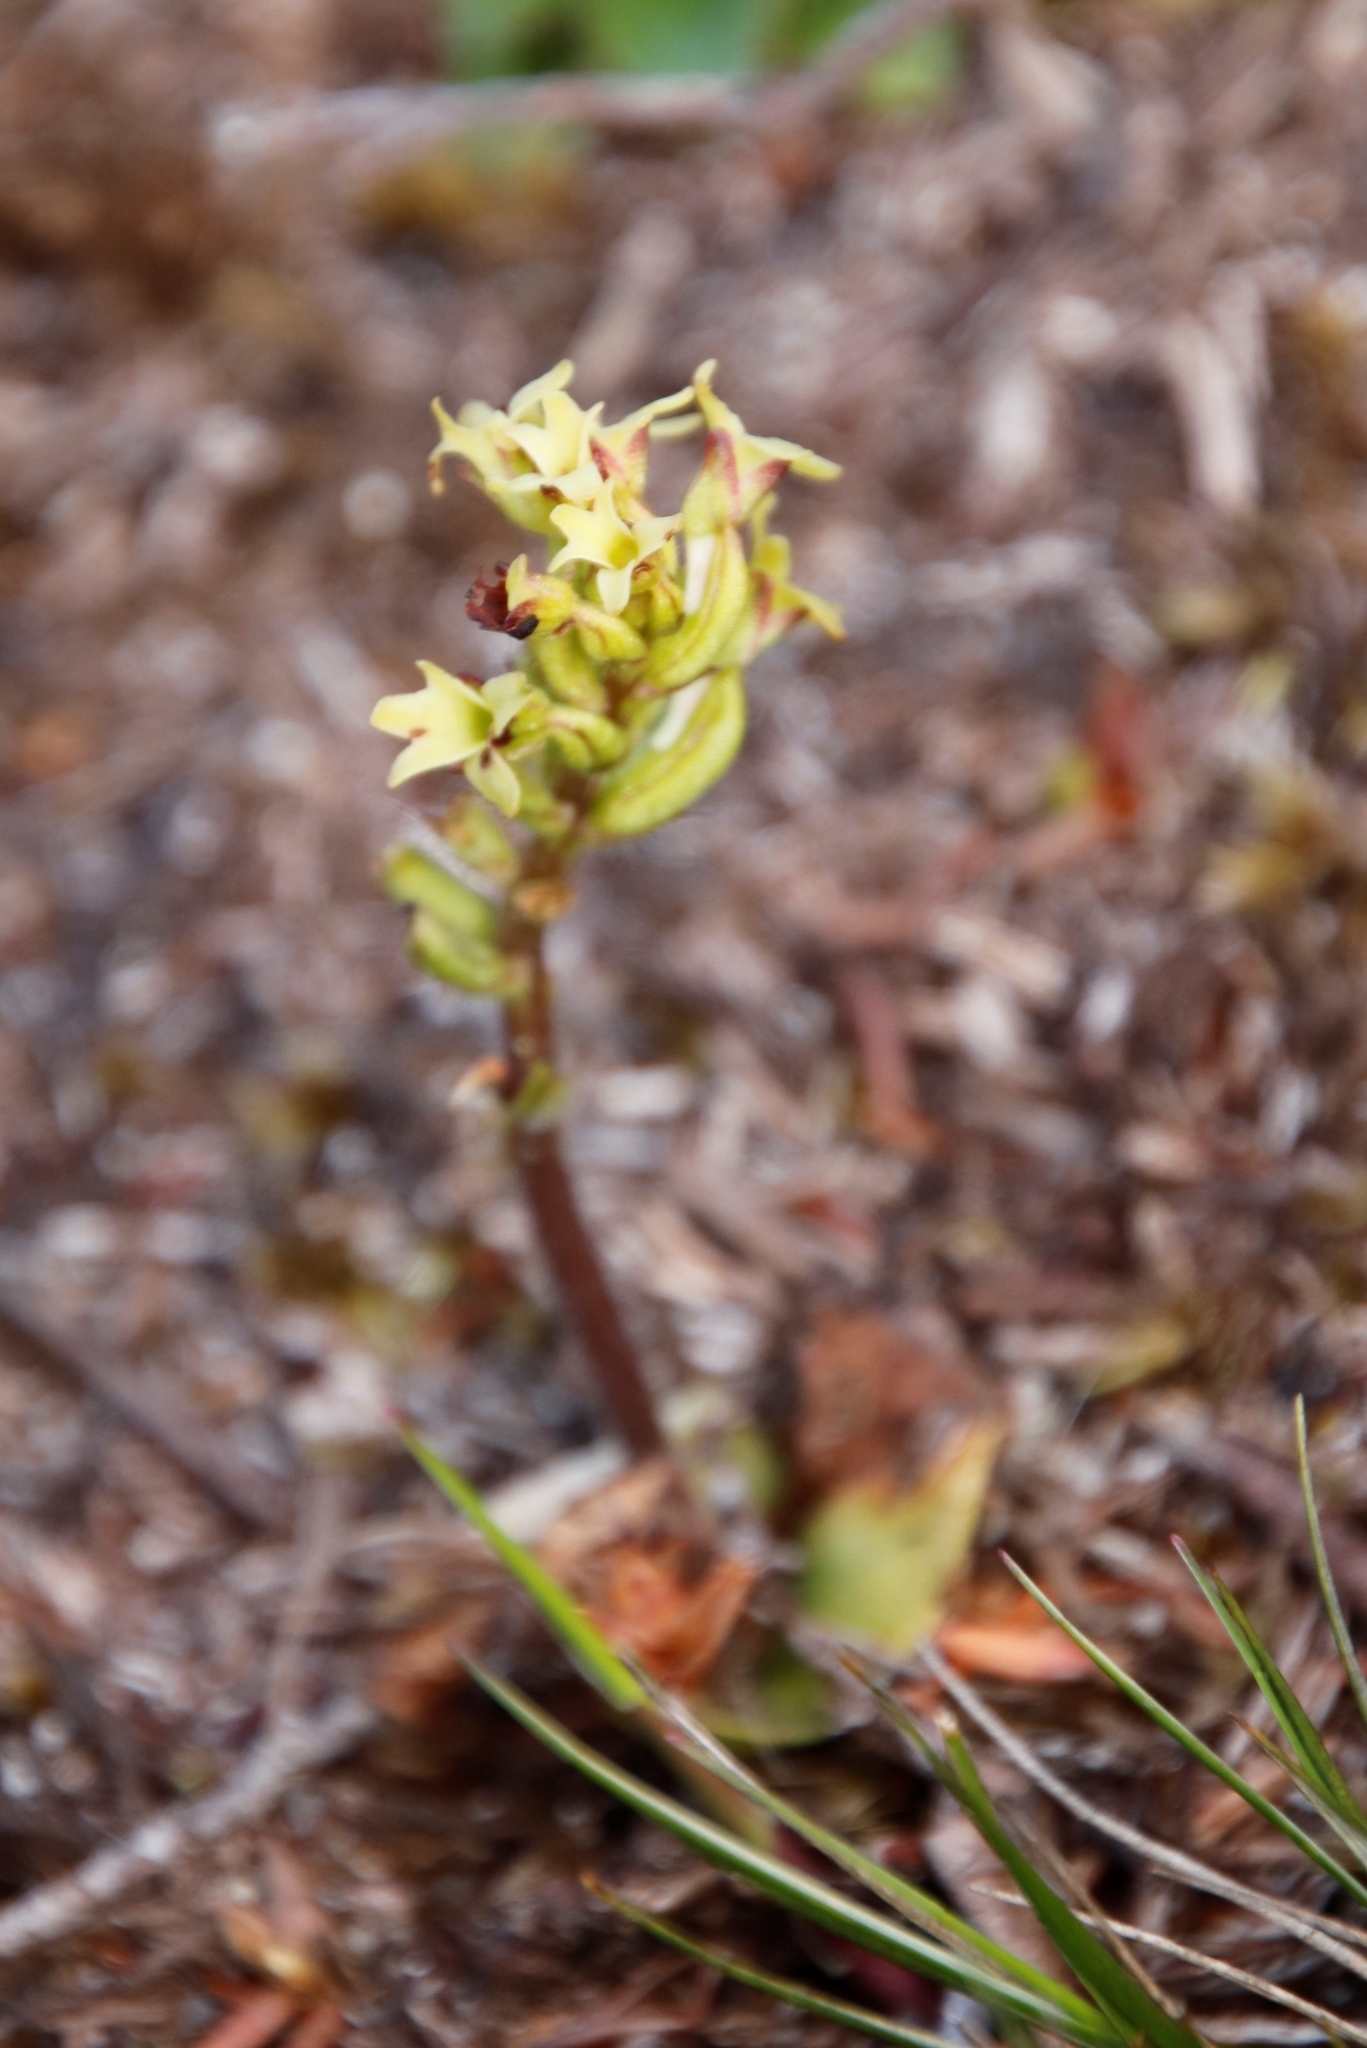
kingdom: Plantae
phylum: Tracheophyta
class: Liliopsida
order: Asparagales
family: Orchidaceae
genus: Holothrix
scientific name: Holothrix condensata
